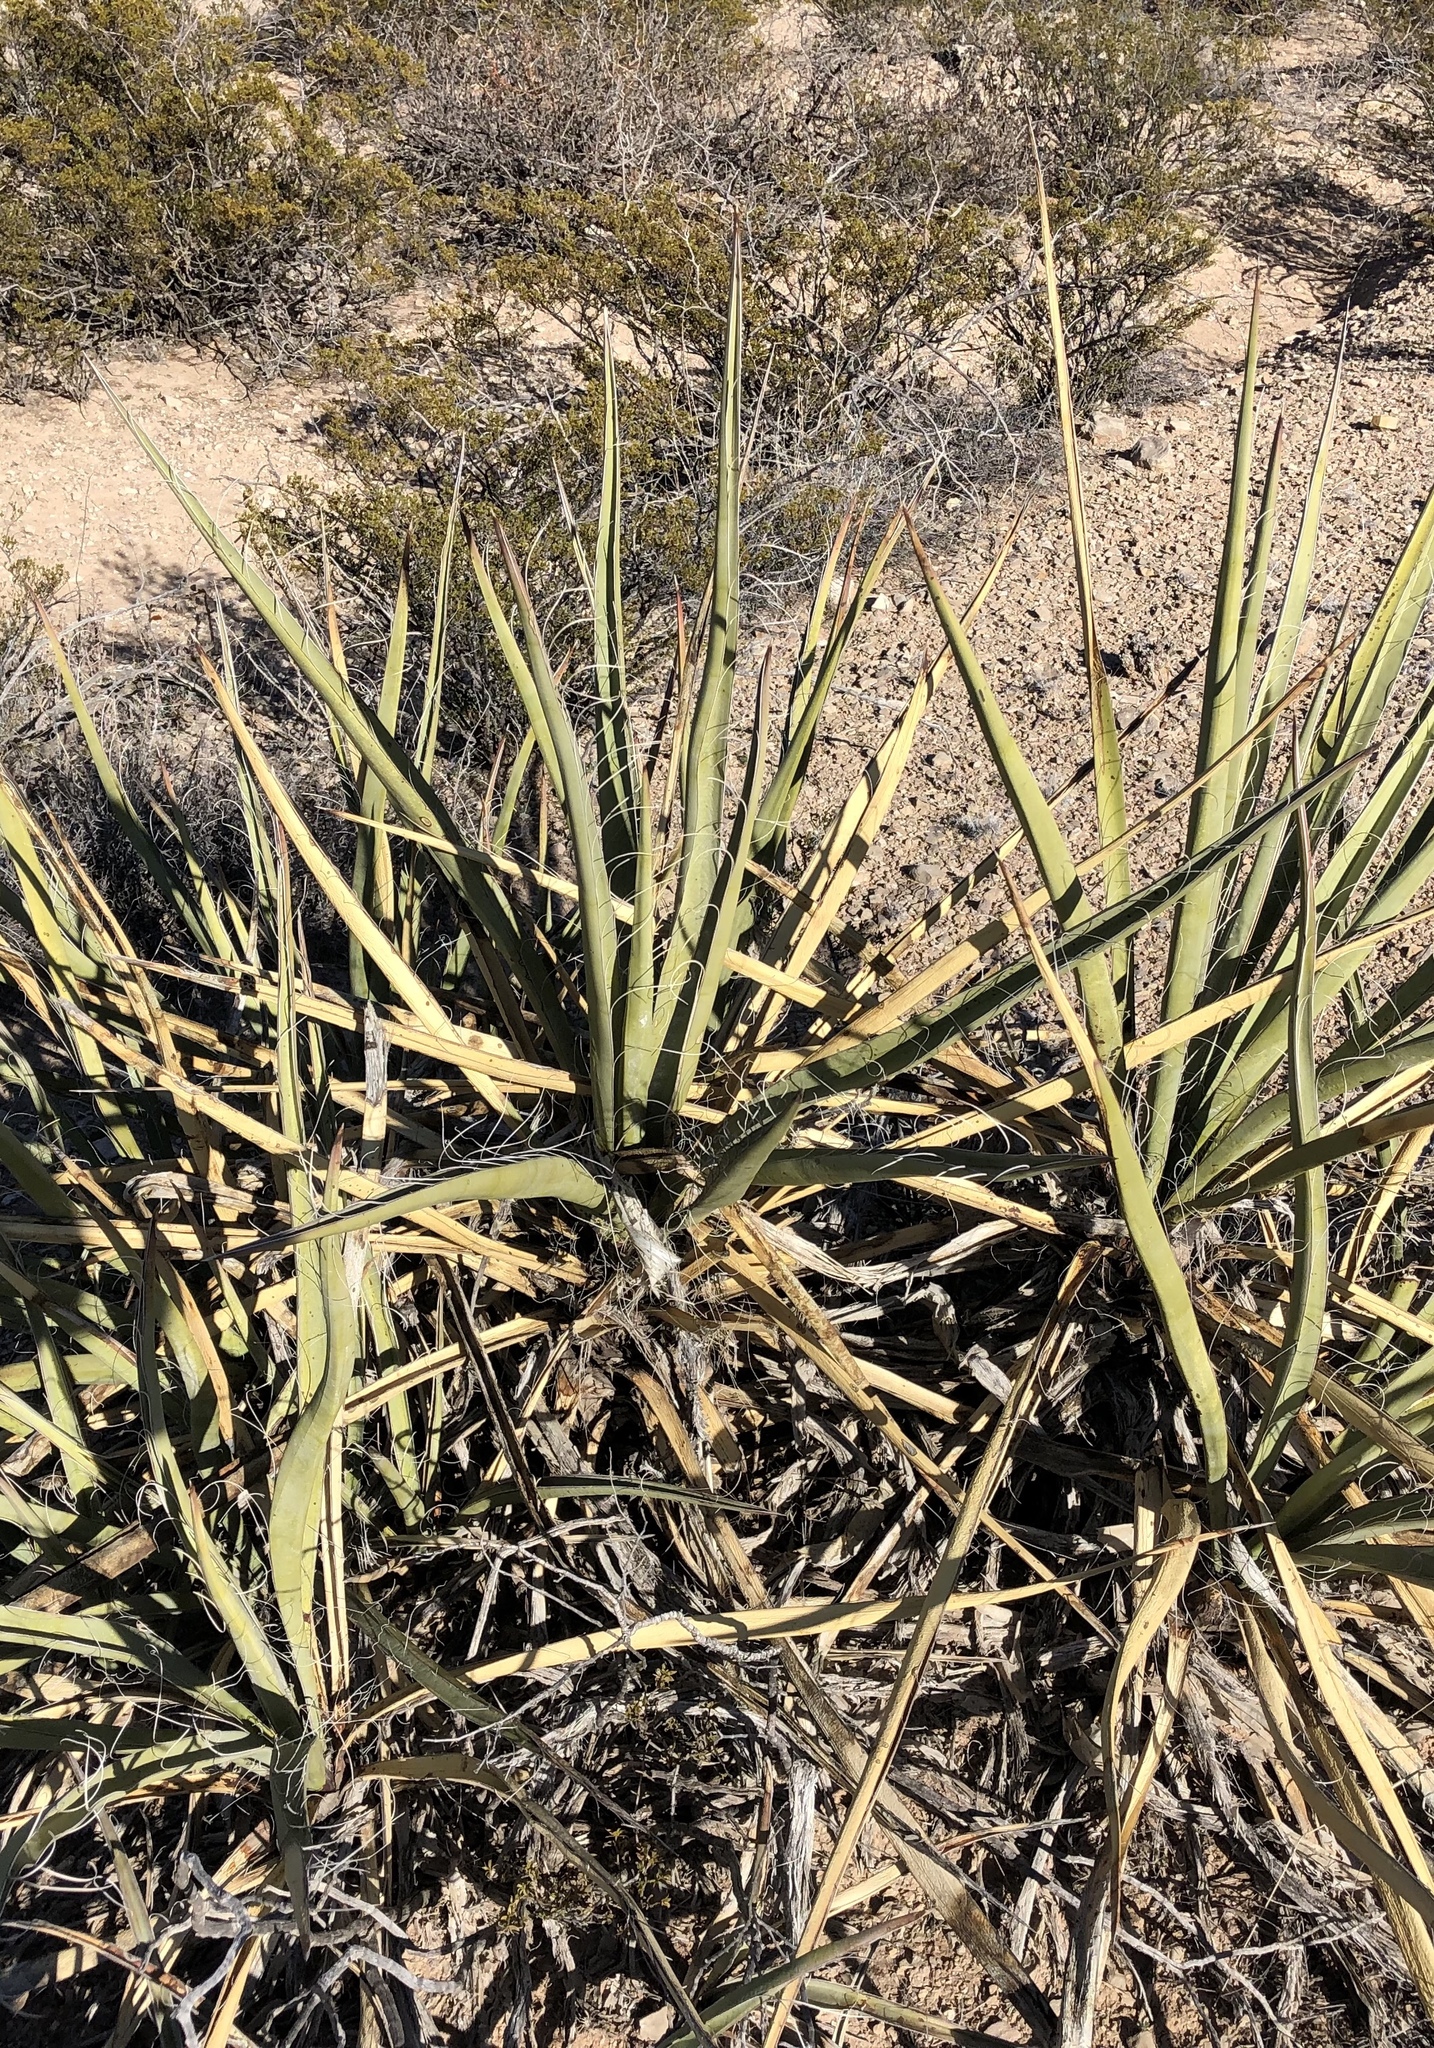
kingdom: Plantae
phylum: Tracheophyta
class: Liliopsida
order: Asparagales
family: Asparagaceae
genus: Yucca
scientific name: Yucca baccata
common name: Banana yucca
